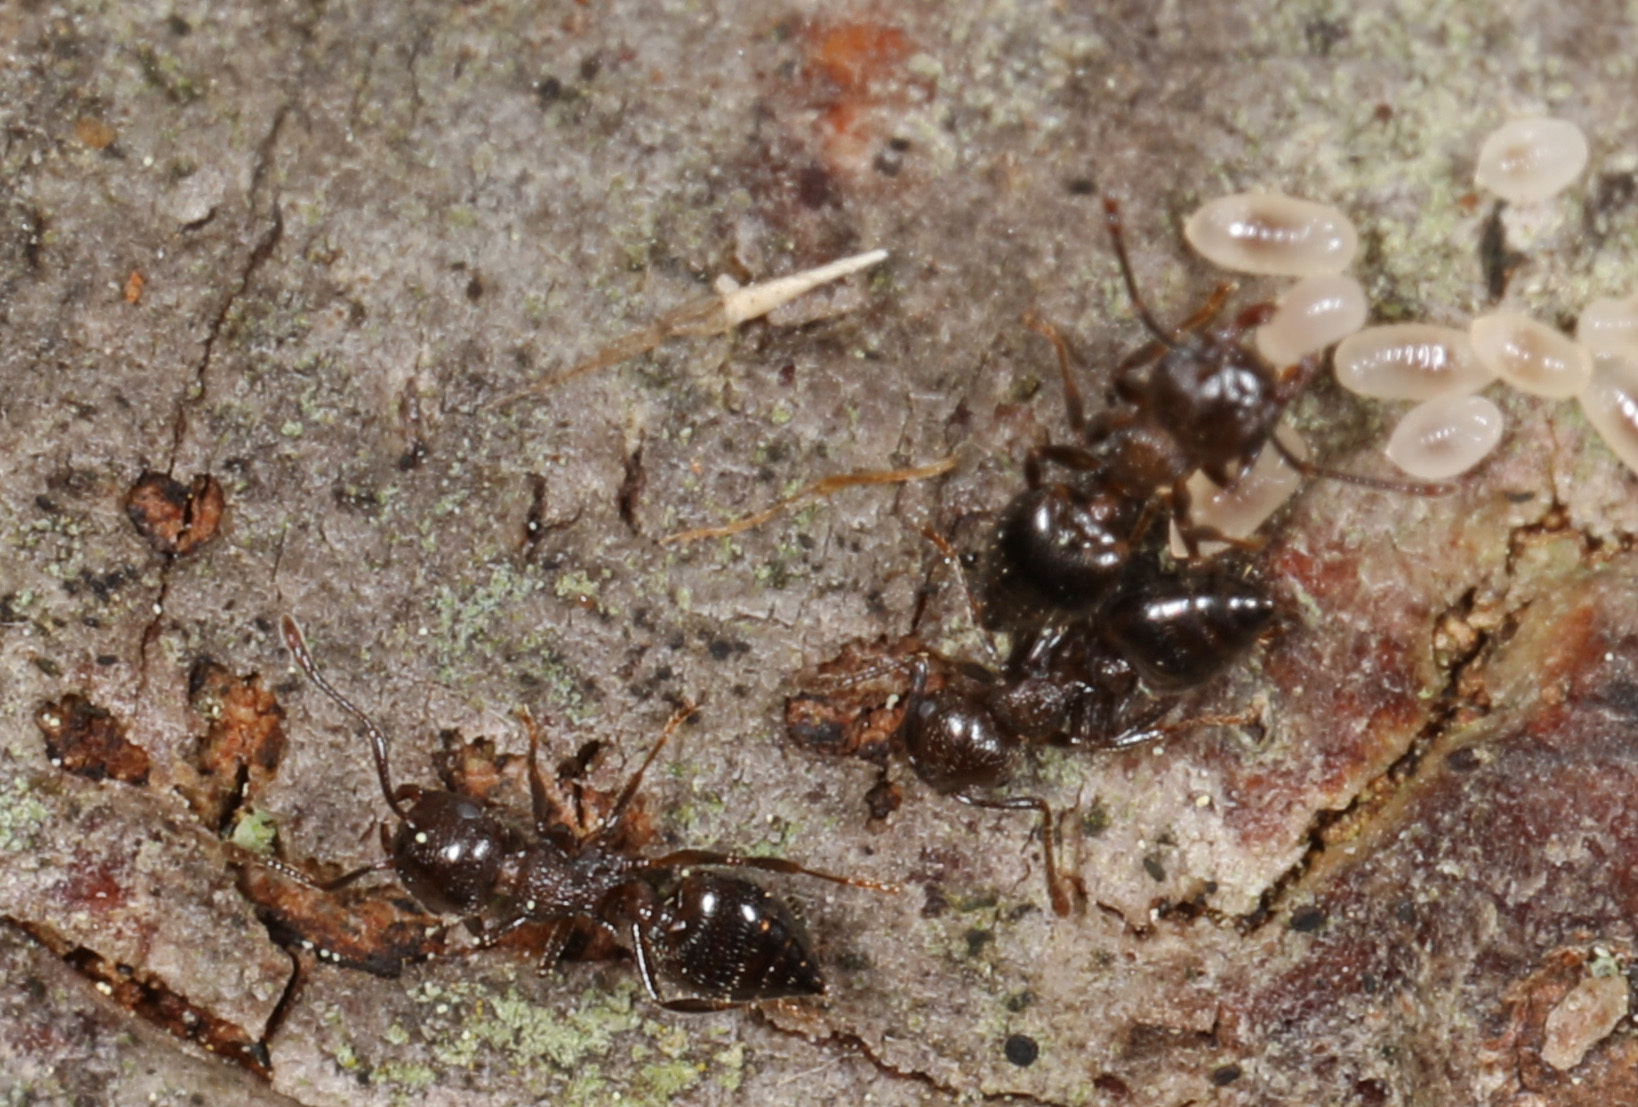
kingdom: Animalia
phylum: Arthropoda
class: Insecta
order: Hymenoptera
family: Formicidae
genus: Crematogaster
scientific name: Crematogaster lineolata
